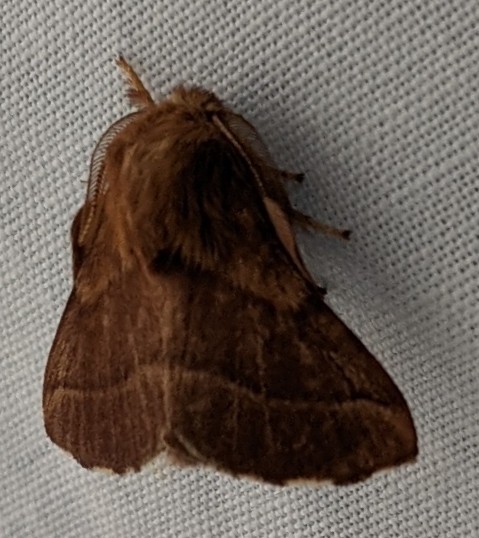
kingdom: Animalia
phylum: Arthropoda
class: Insecta
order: Lepidoptera
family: Lasiocampidae
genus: Malacosoma
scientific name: Malacosoma americana
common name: Eastern tent caterpillar moth
